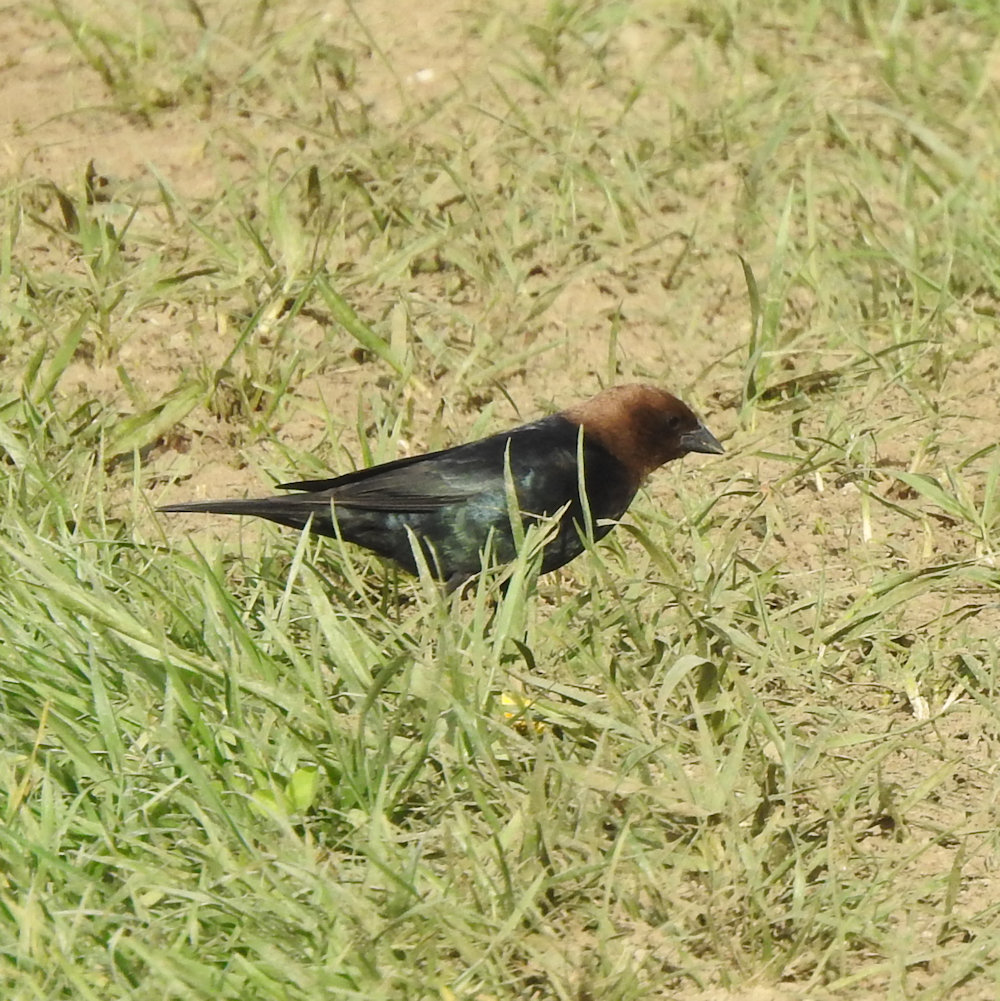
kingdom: Animalia
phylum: Chordata
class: Aves
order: Passeriformes
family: Icteridae
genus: Molothrus
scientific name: Molothrus ater
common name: Brown-headed cowbird
